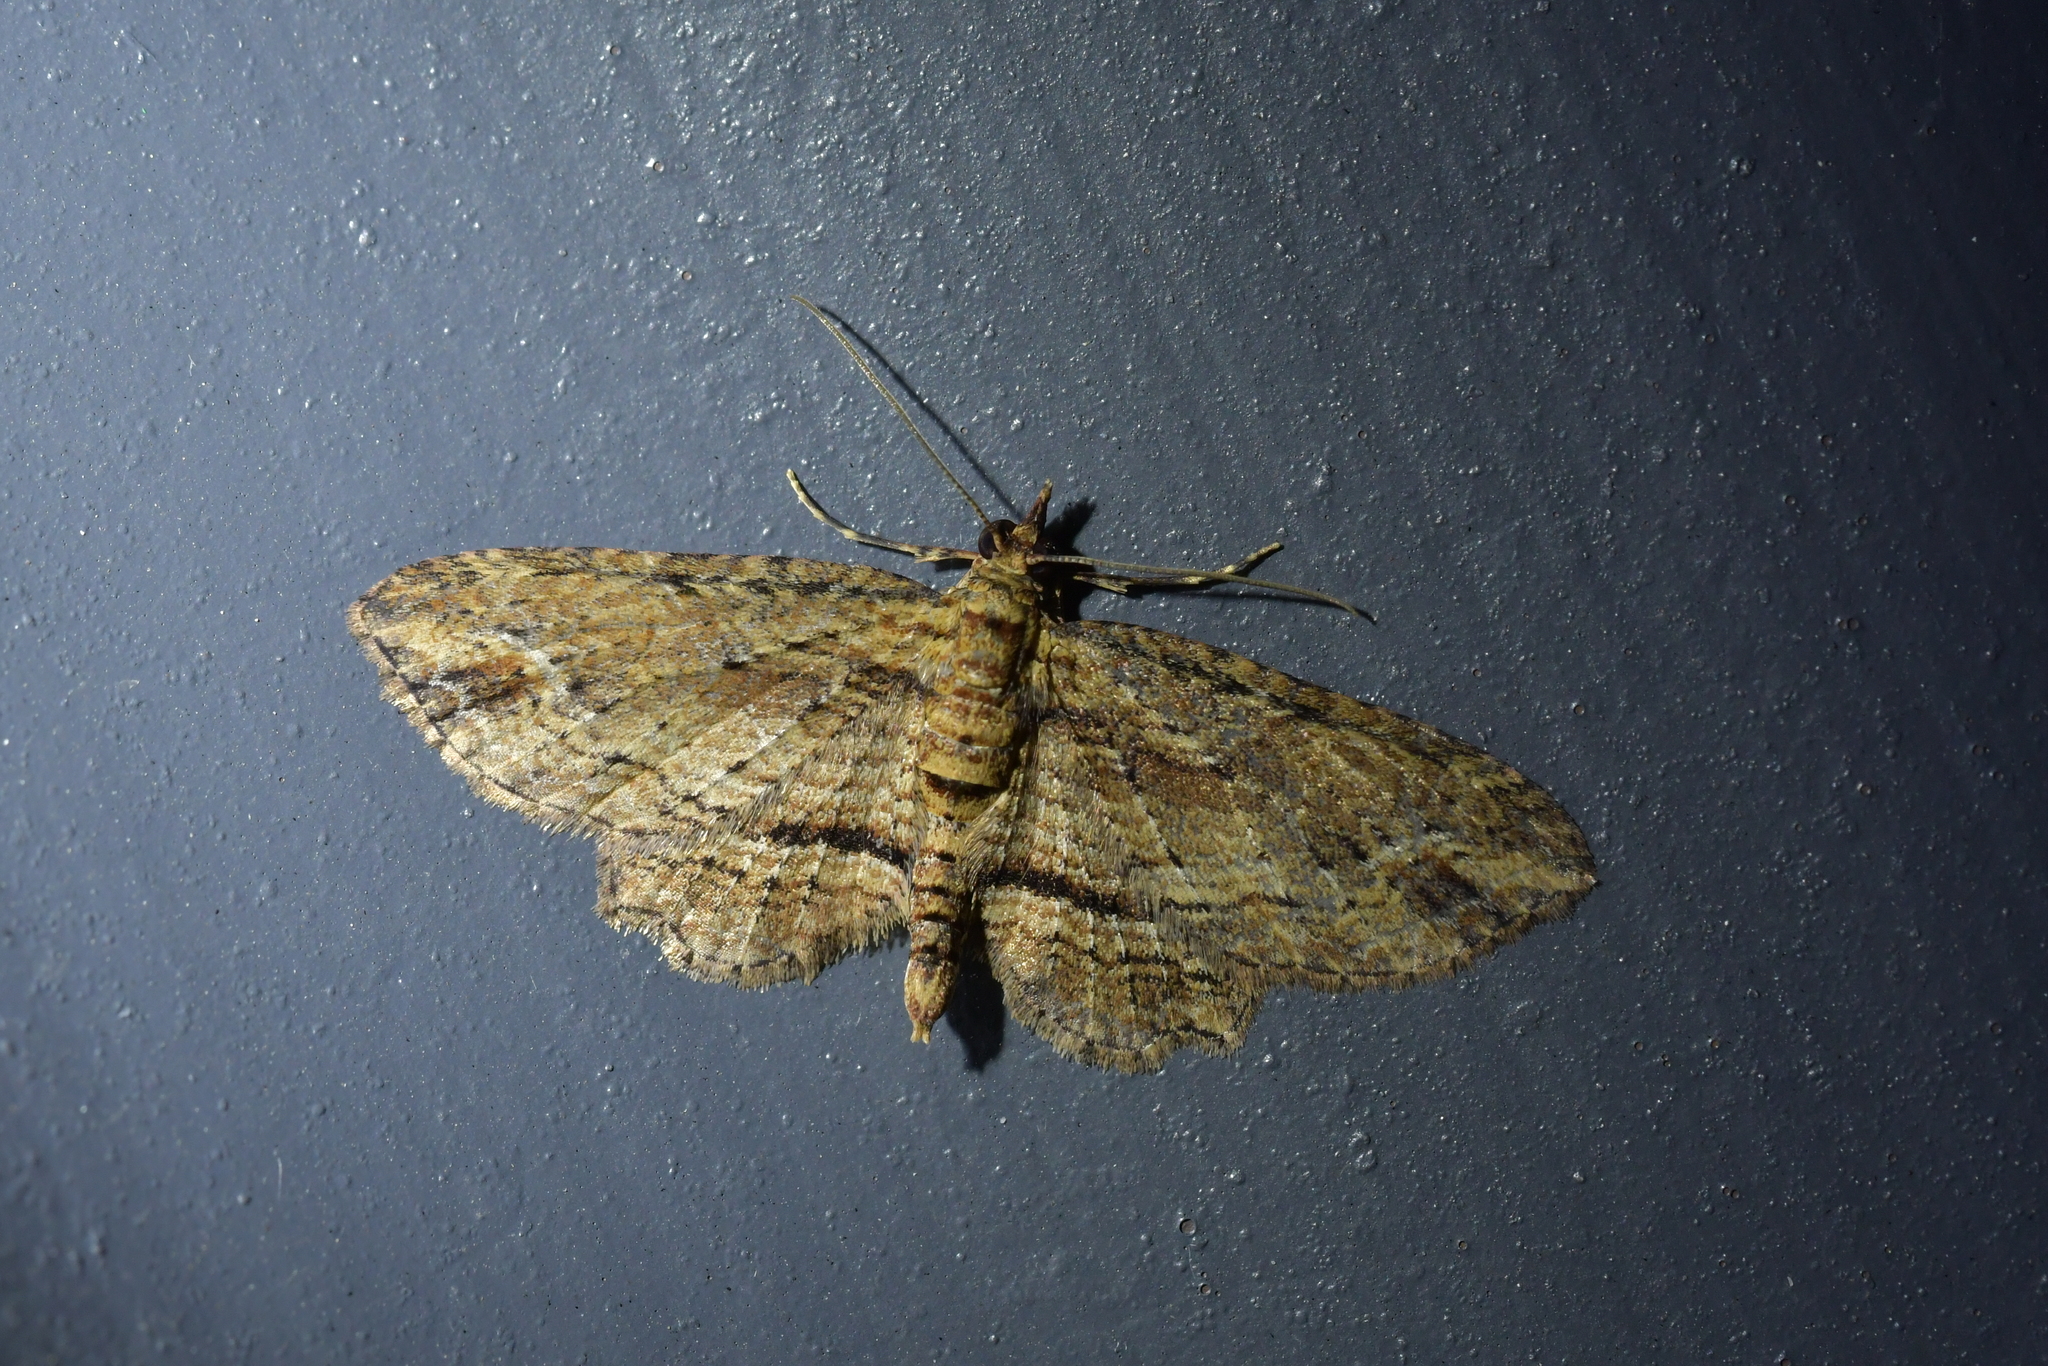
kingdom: Animalia
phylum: Arthropoda
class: Insecta
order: Lepidoptera
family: Geometridae
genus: Chloroclystis
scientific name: Chloroclystis filata
